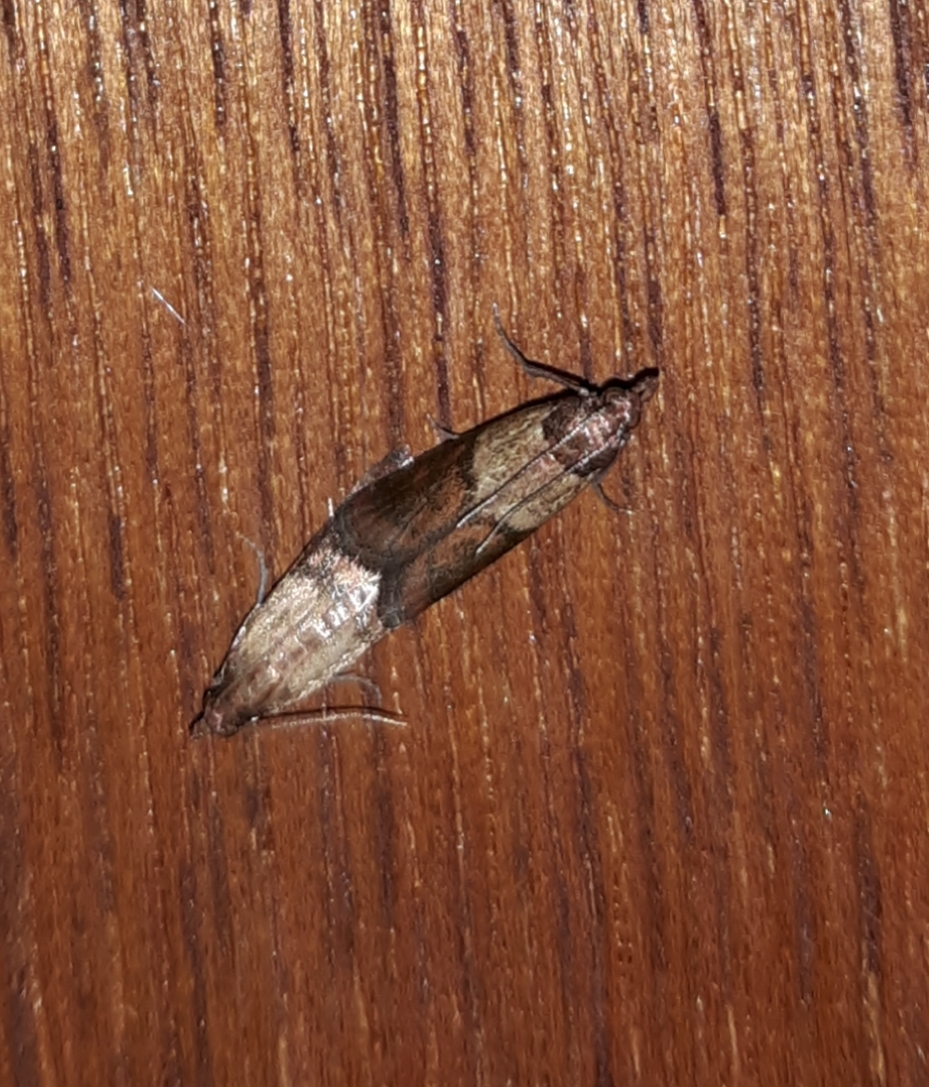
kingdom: Animalia
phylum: Arthropoda
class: Insecta
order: Lepidoptera
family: Pyralidae
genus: Plodia
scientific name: Plodia interpunctella
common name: Indian meal moth
